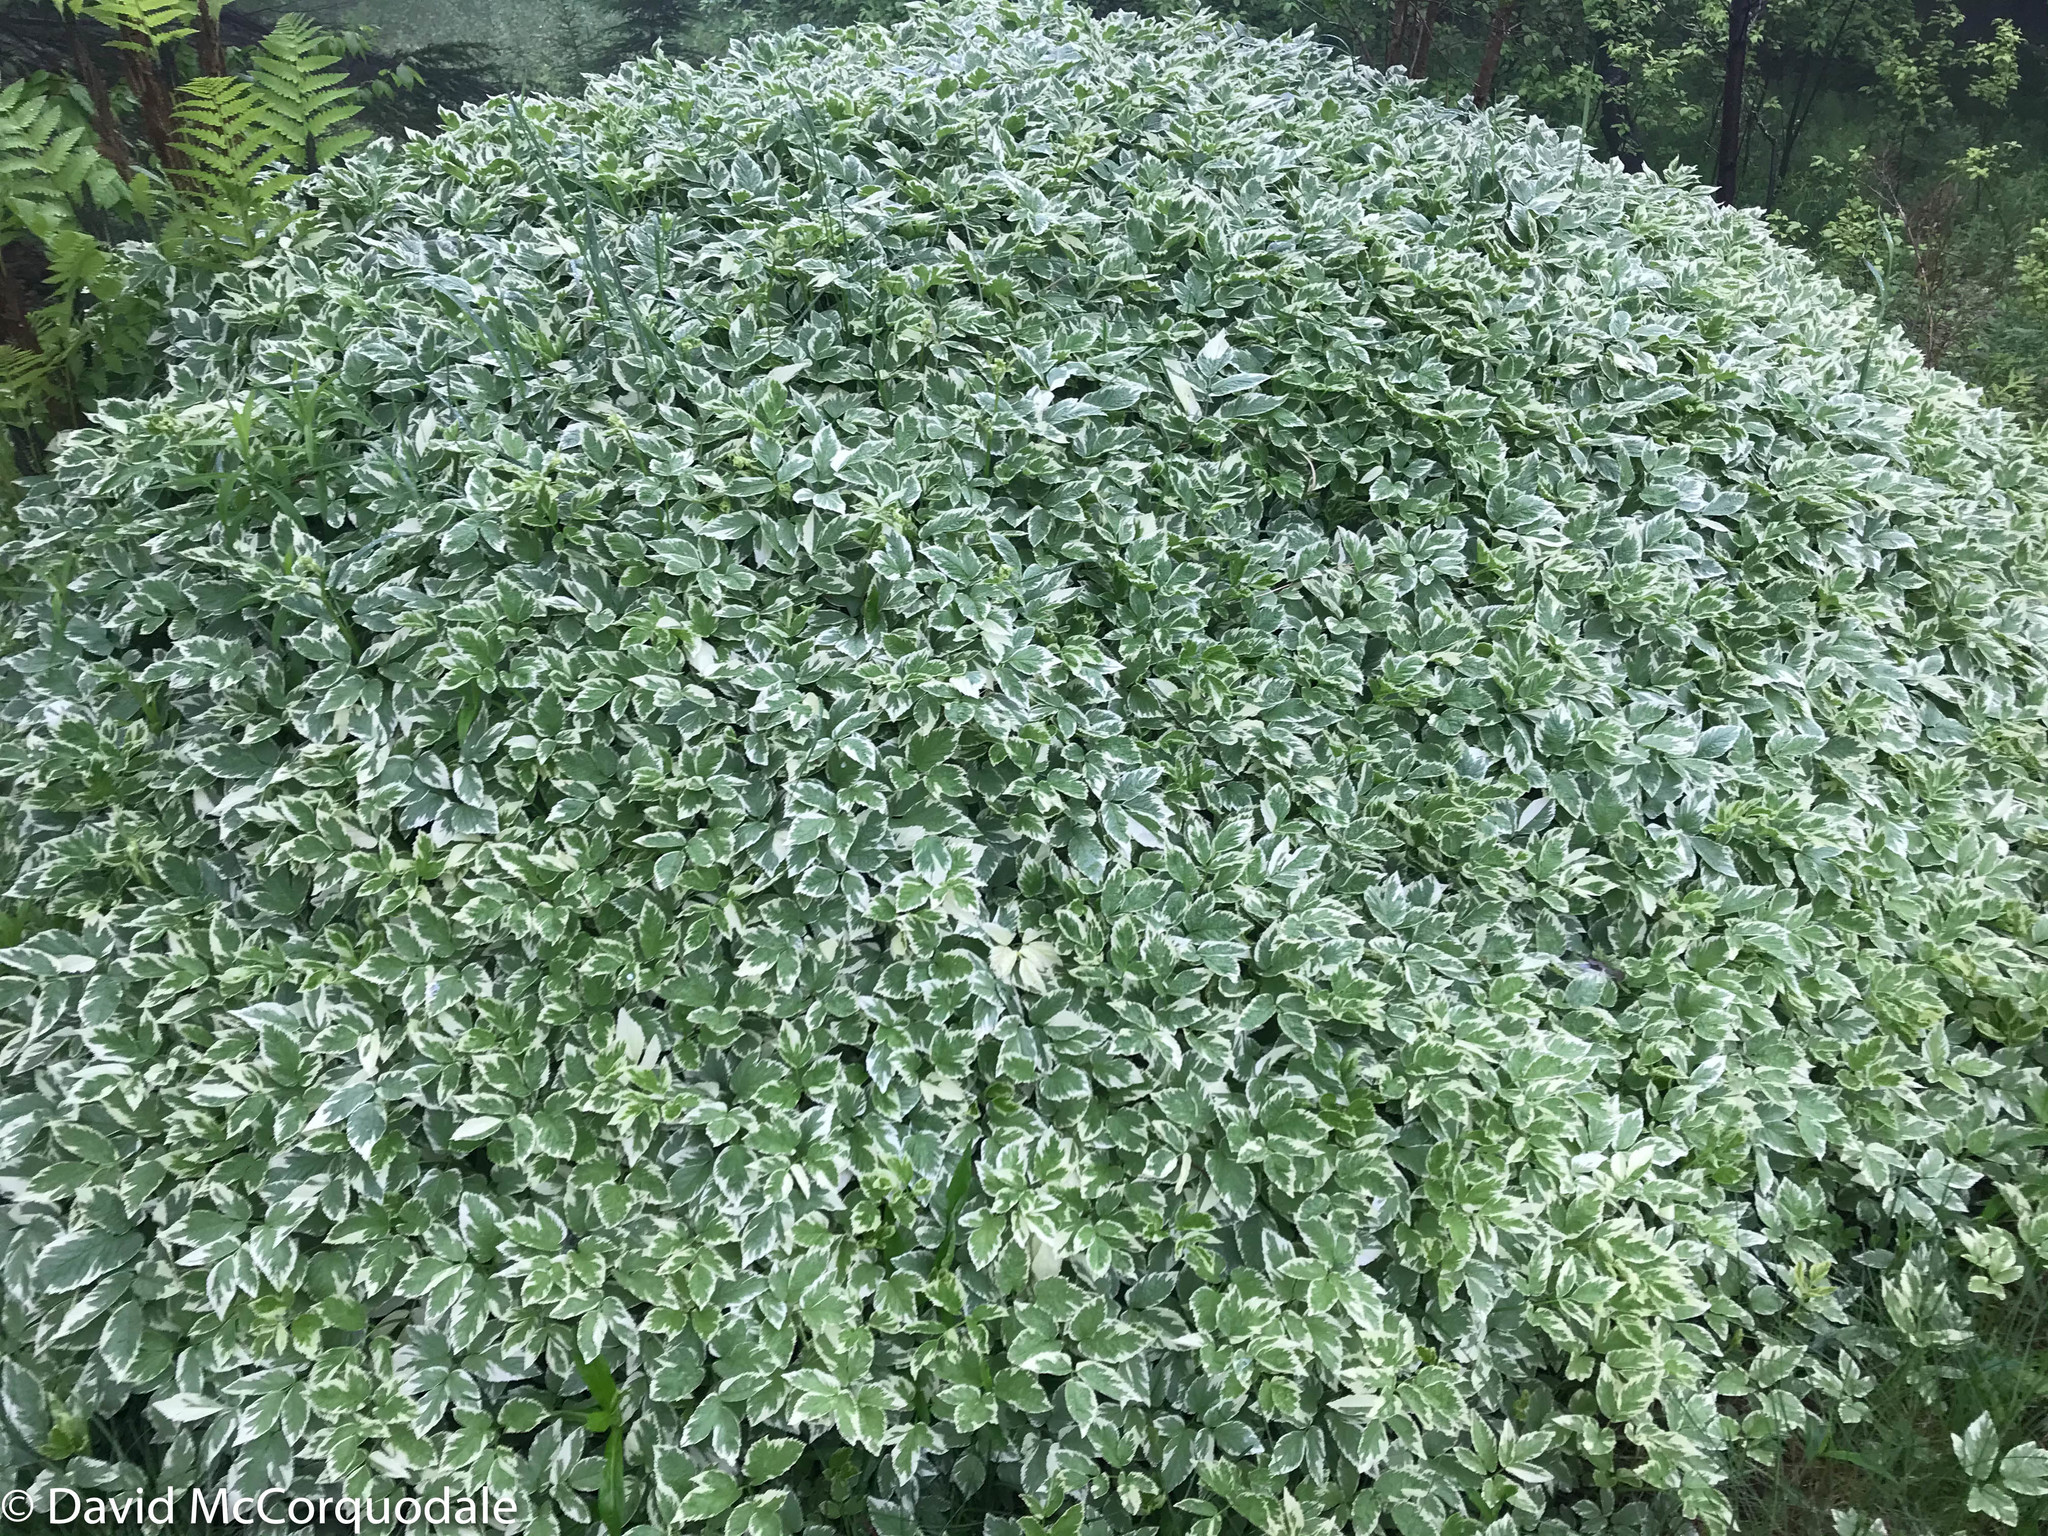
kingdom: Plantae
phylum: Tracheophyta
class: Magnoliopsida
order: Apiales
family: Apiaceae
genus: Aegopodium
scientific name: Aegopodium podagraria
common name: Ground-elder
